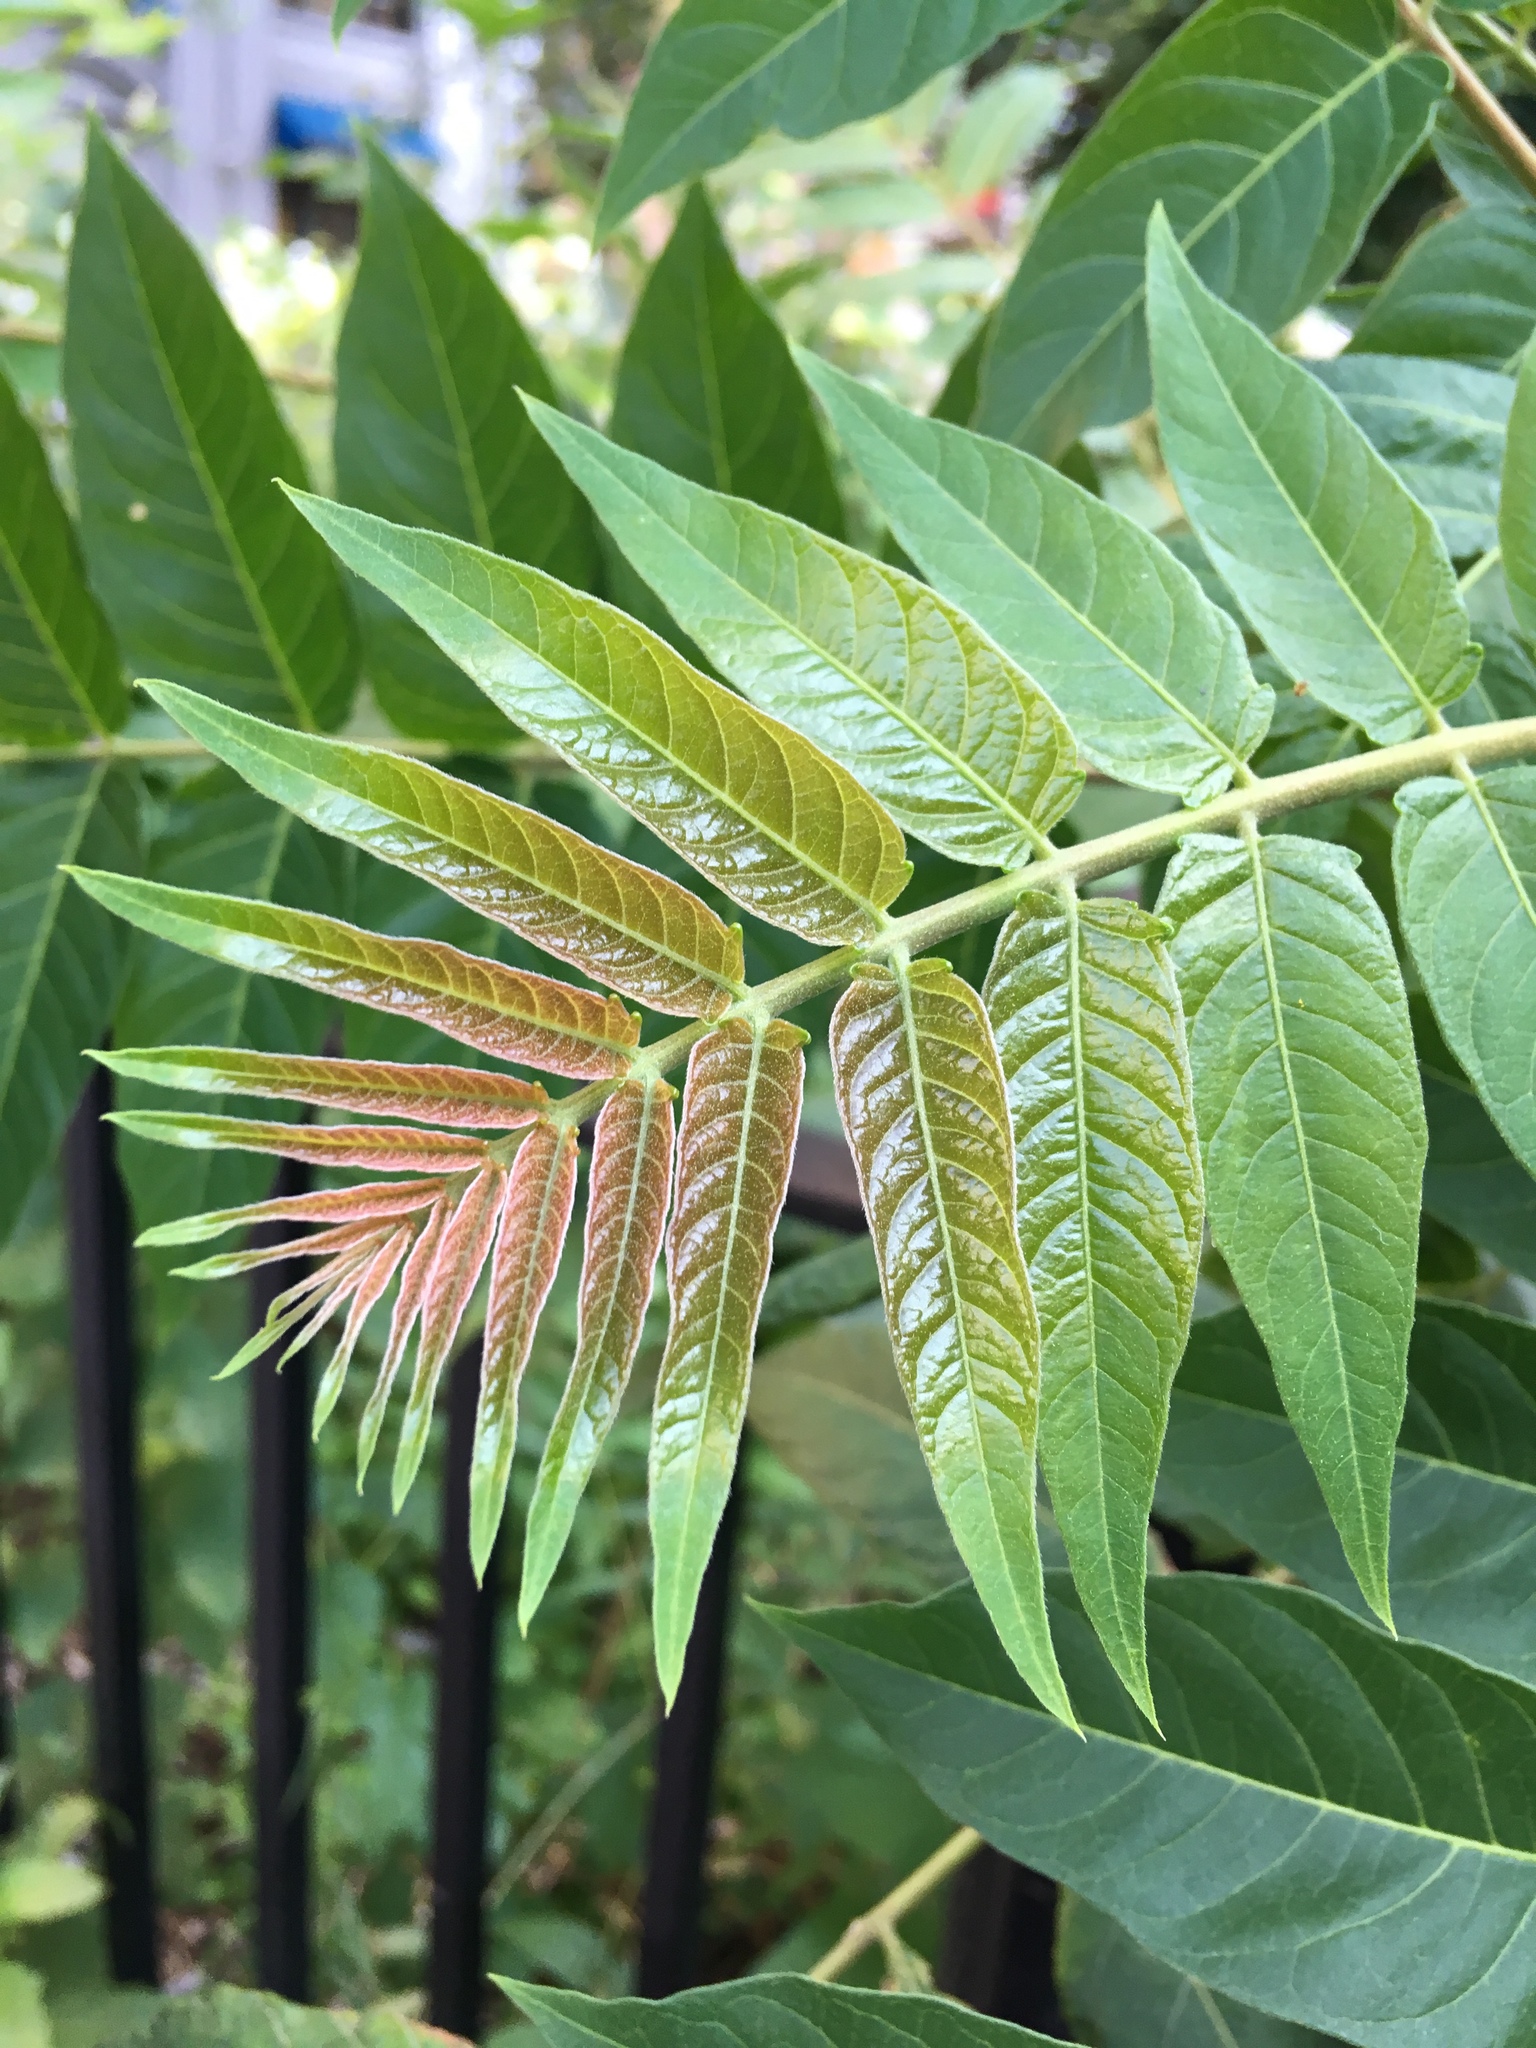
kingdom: Plantae
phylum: Tracheophyta
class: Magnoliopsida
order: Sapindales
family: Simaroubaceae
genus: Ailanthus
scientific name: Ailanthus altissima
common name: Tree-of-heaven
